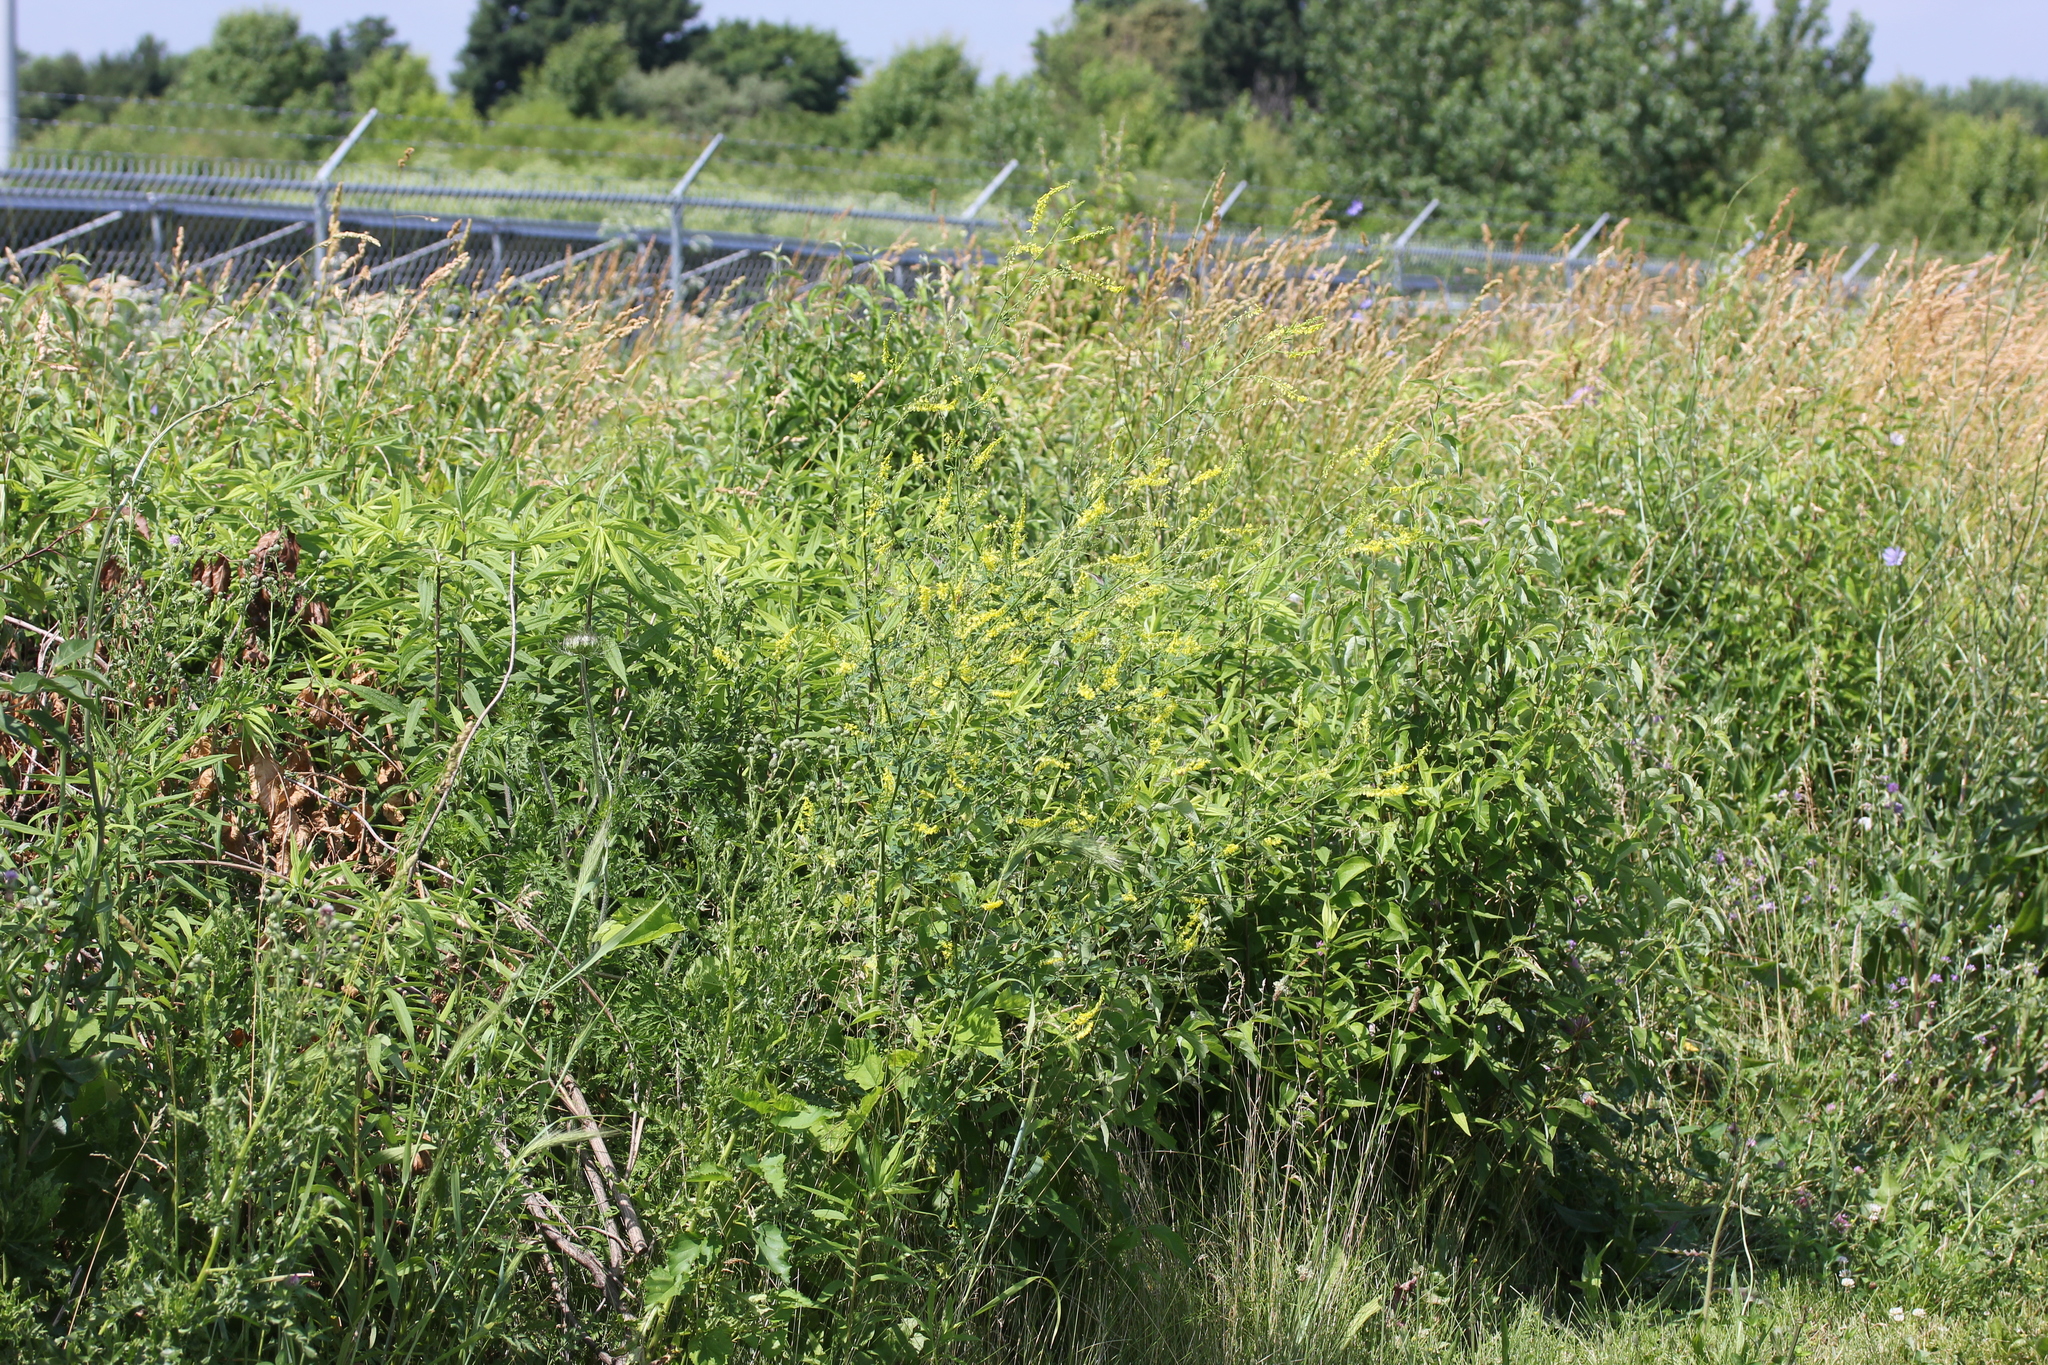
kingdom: Plantae
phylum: Tracheophyta
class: Magnoliopsida
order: Fabales
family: Fabaceae
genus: Melilotus
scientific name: Melilotus officinalis
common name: Sweetclover
